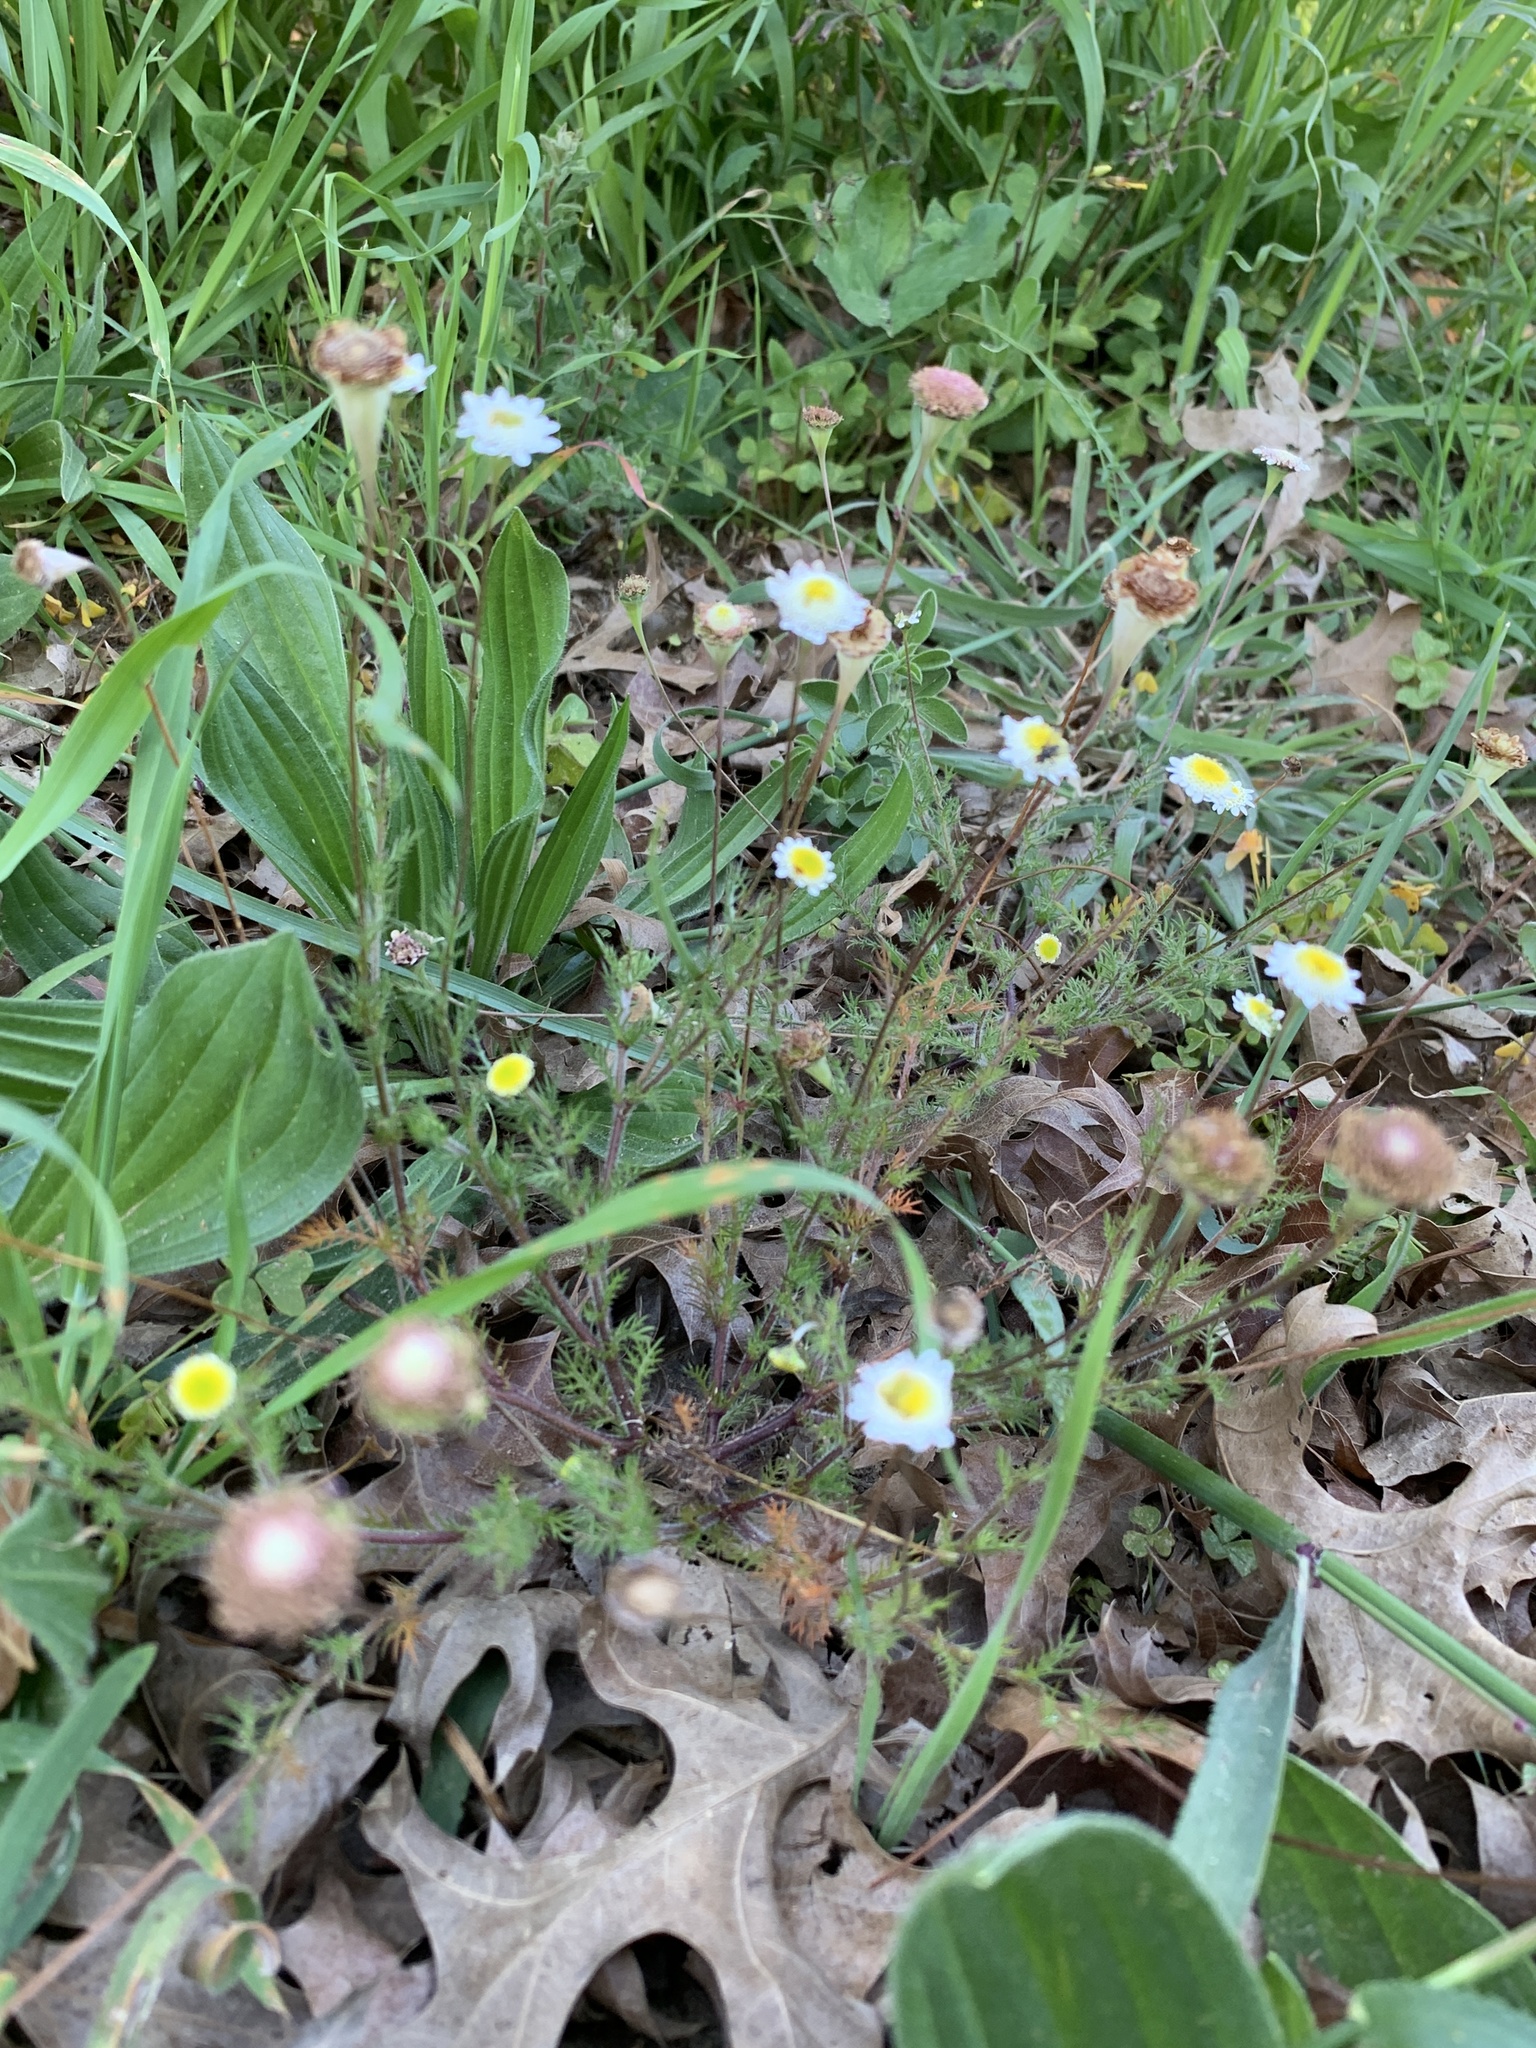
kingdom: Plantae
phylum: Tracheophyta
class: Magnoliopsida
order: Asterales
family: Asteraceae
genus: Cotula
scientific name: Cotula turbinata
